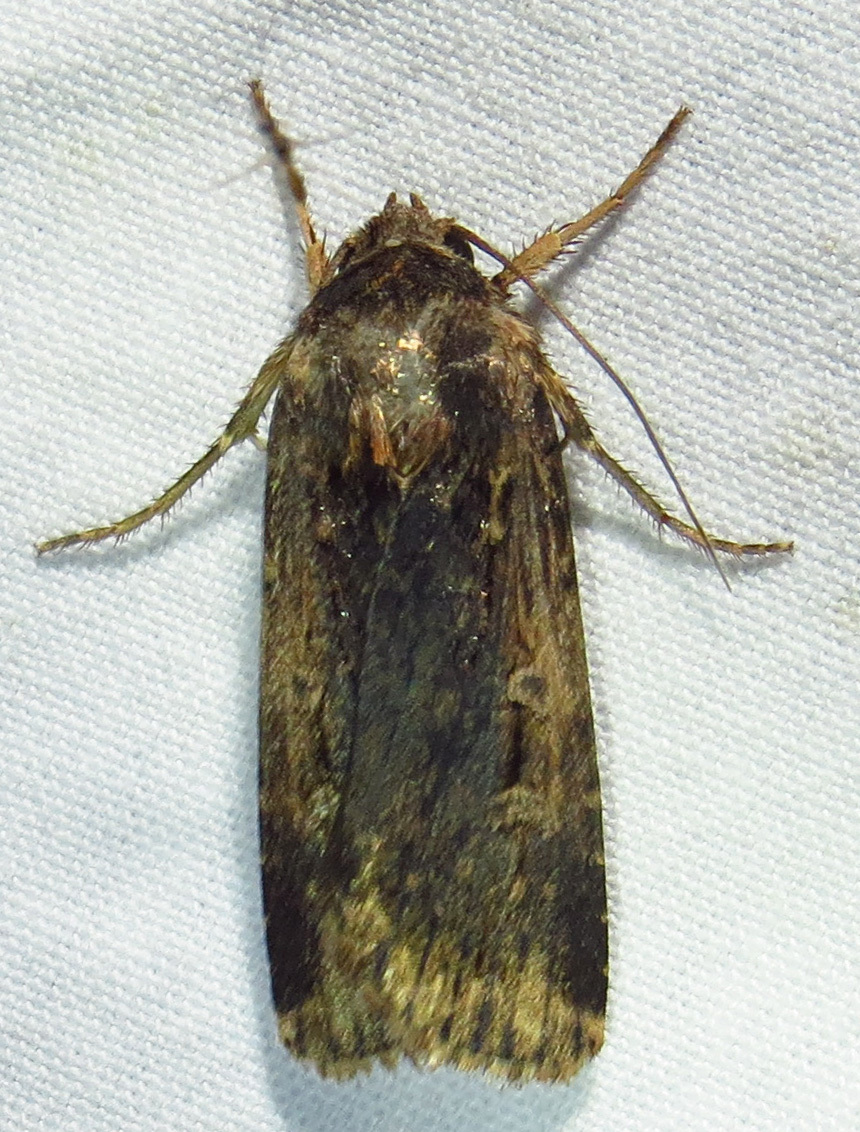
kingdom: Animalia
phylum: Arthropoda
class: Insecta
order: Lepidoptera
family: Noctuidae
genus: Feltia
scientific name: Feltia subterranea
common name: Granulate cutworm
